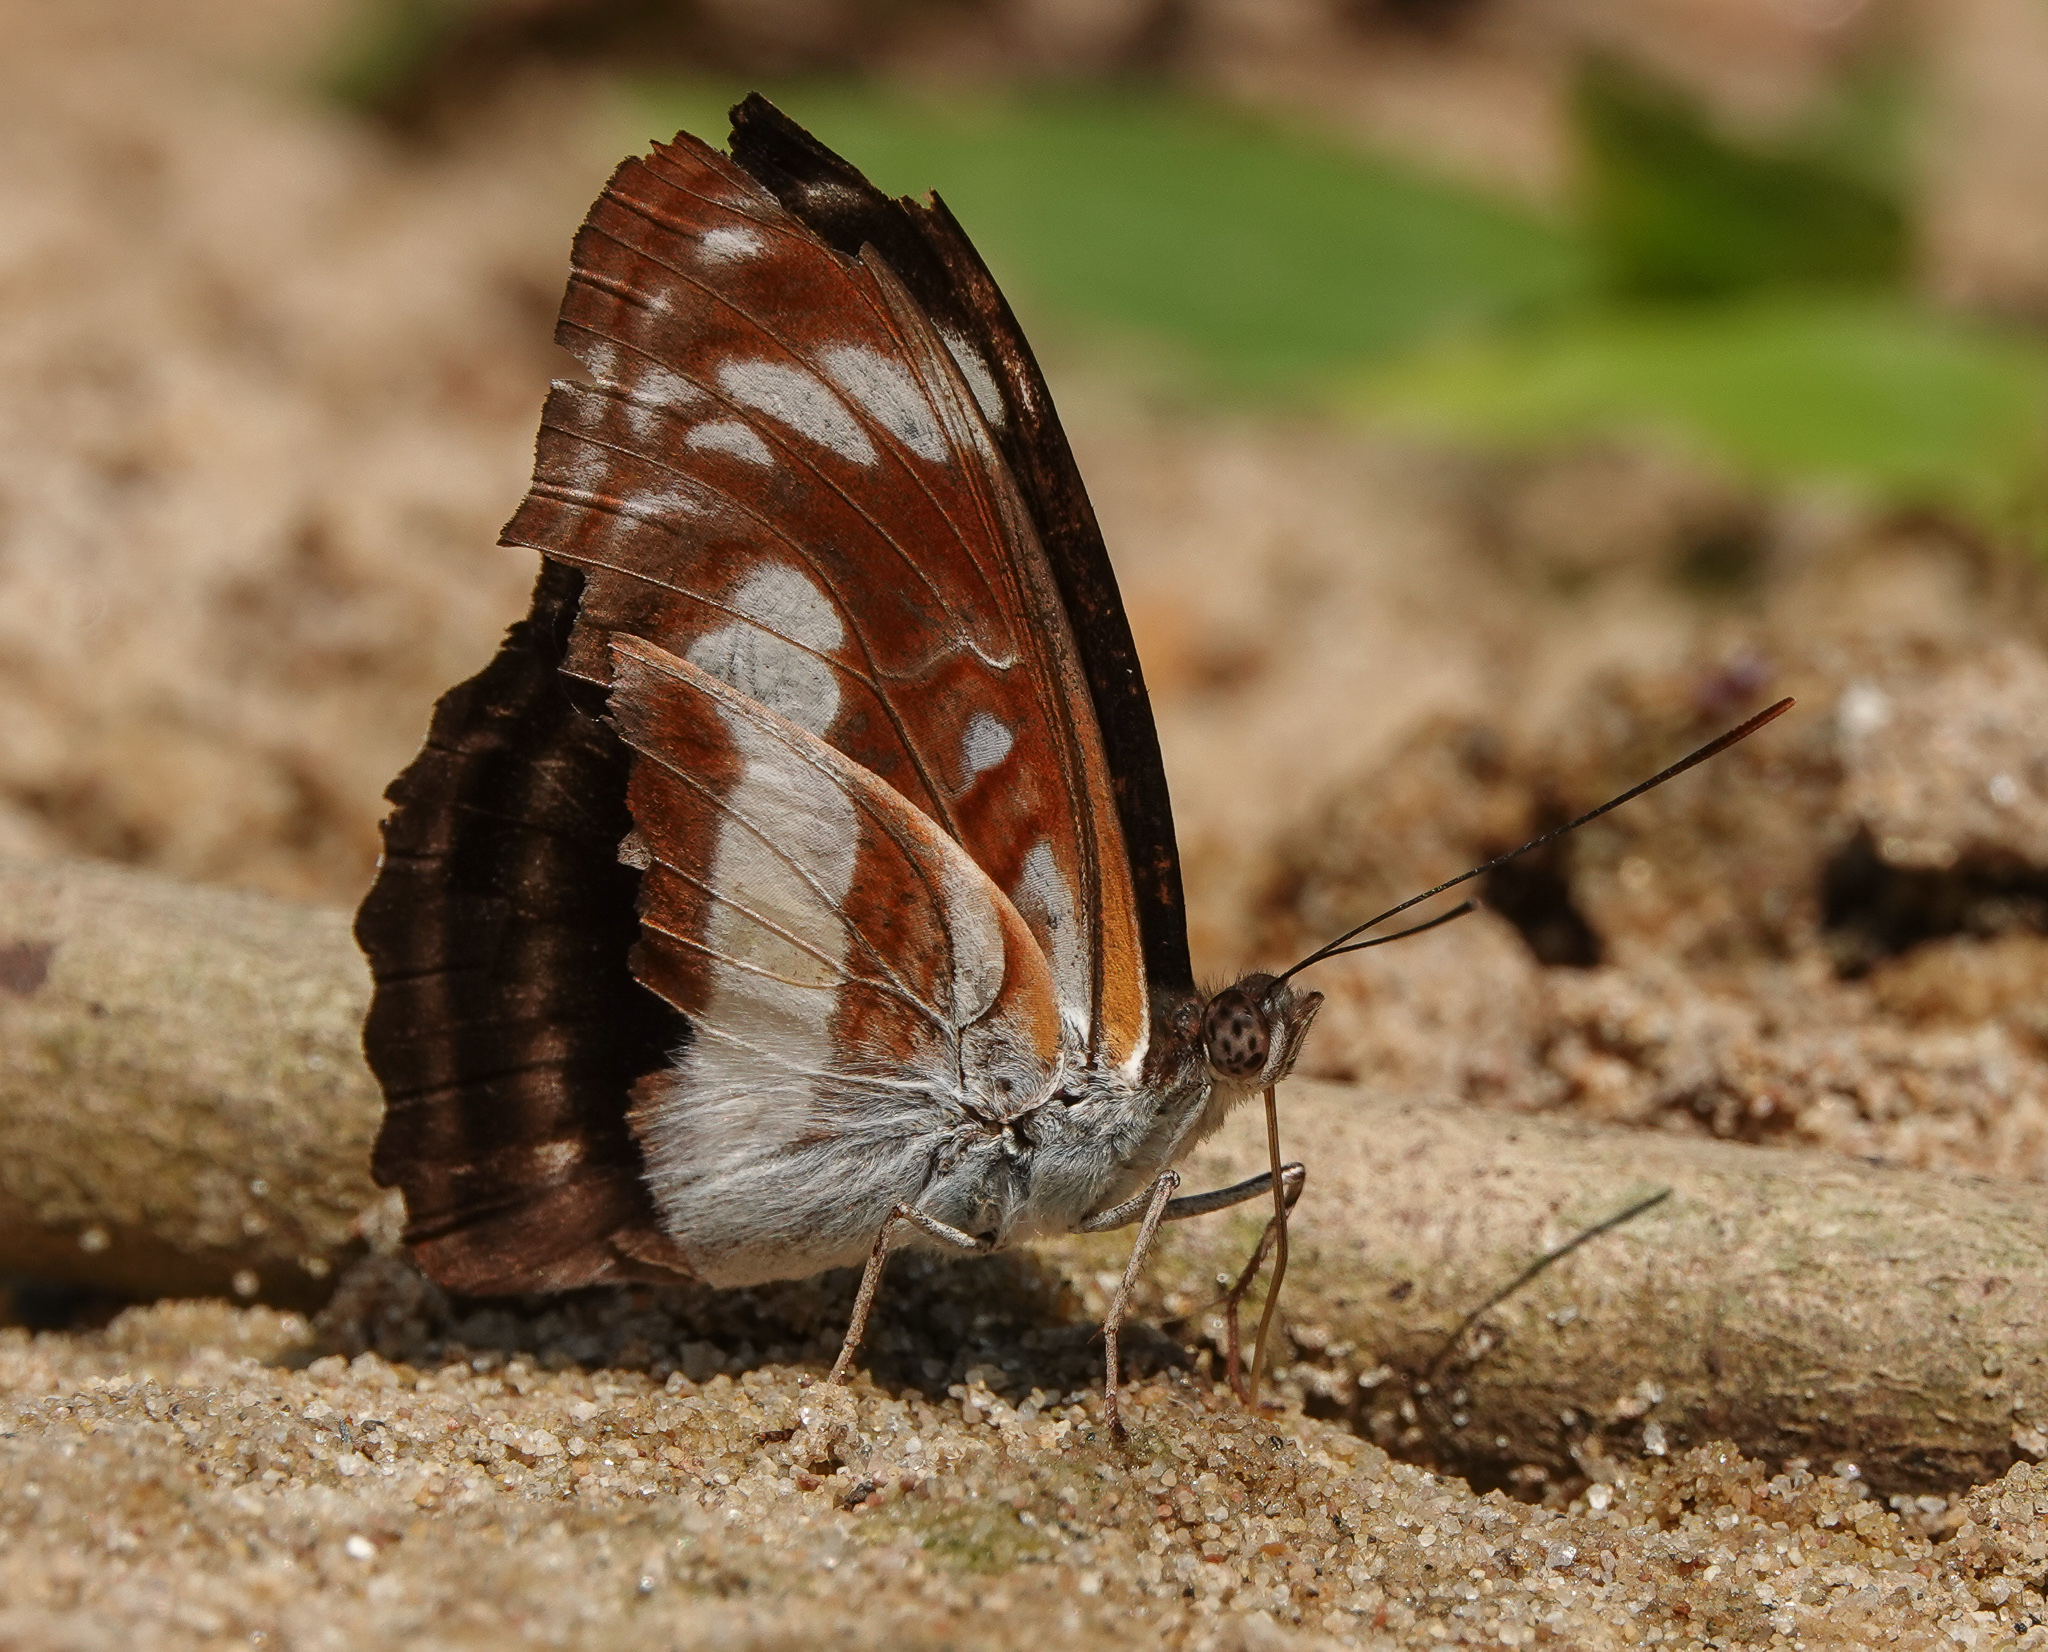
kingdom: Animalia
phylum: Arthropoda
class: Insecta
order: Lepidoptera
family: Nymphalidae
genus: Parathyma
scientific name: Parathyma selenophora
